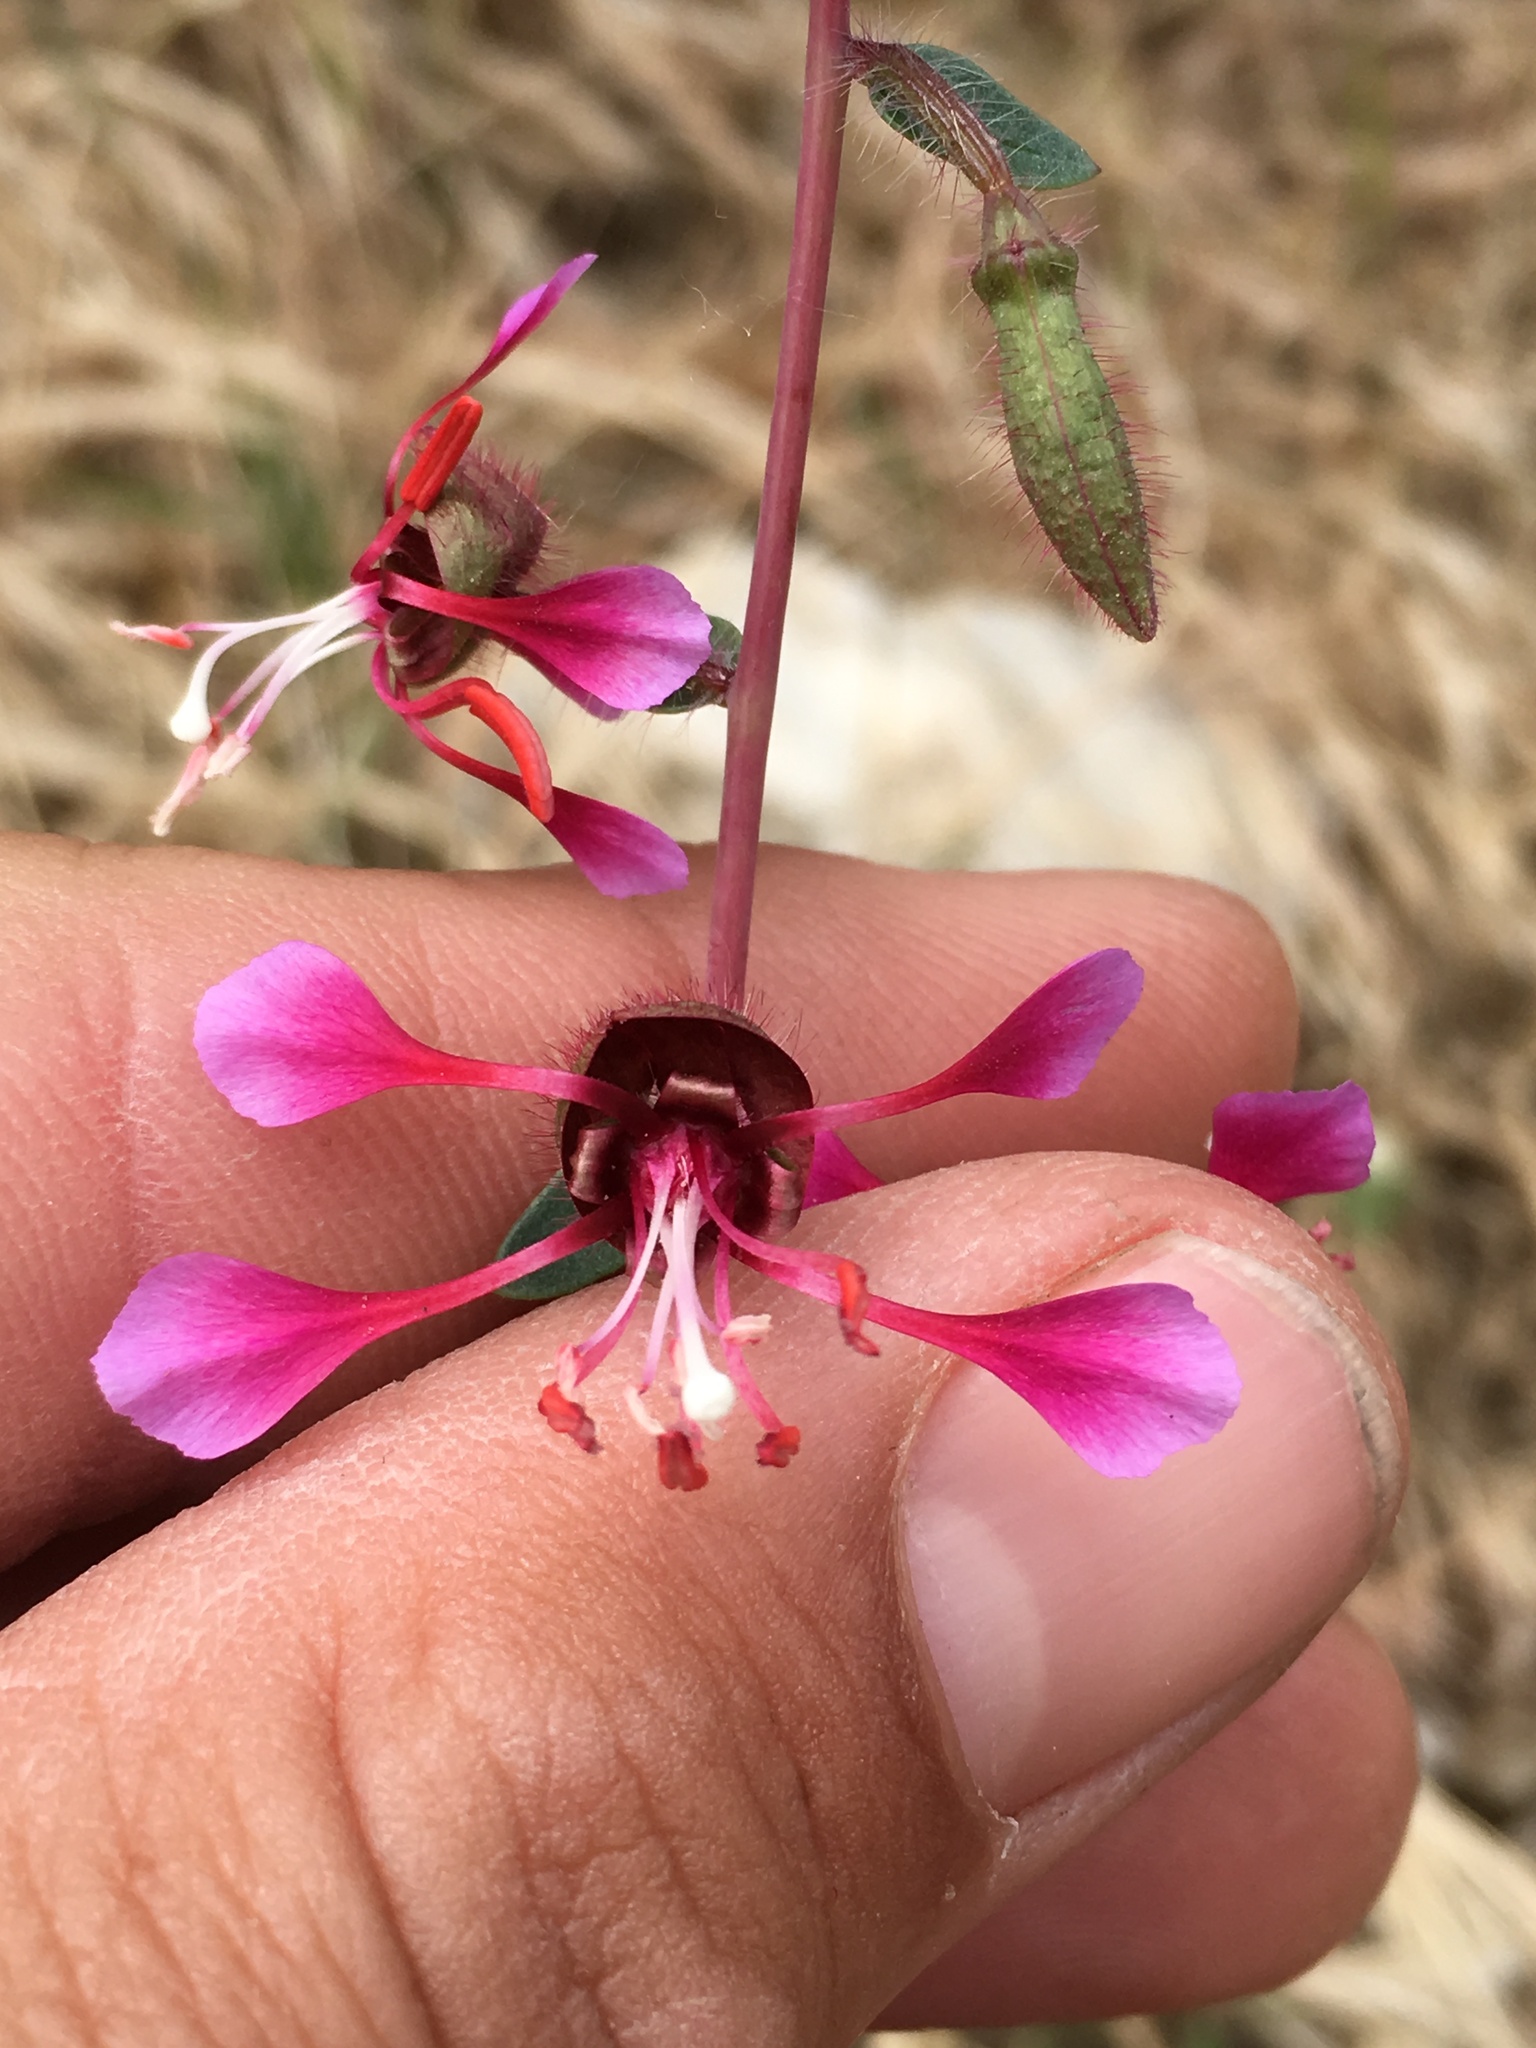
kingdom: Plantae
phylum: Tracheophyta
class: Magnoliopsida
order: Myrtales
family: Onagraceae
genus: Clarkia
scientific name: Clarkia unguiculata
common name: Clarkia
